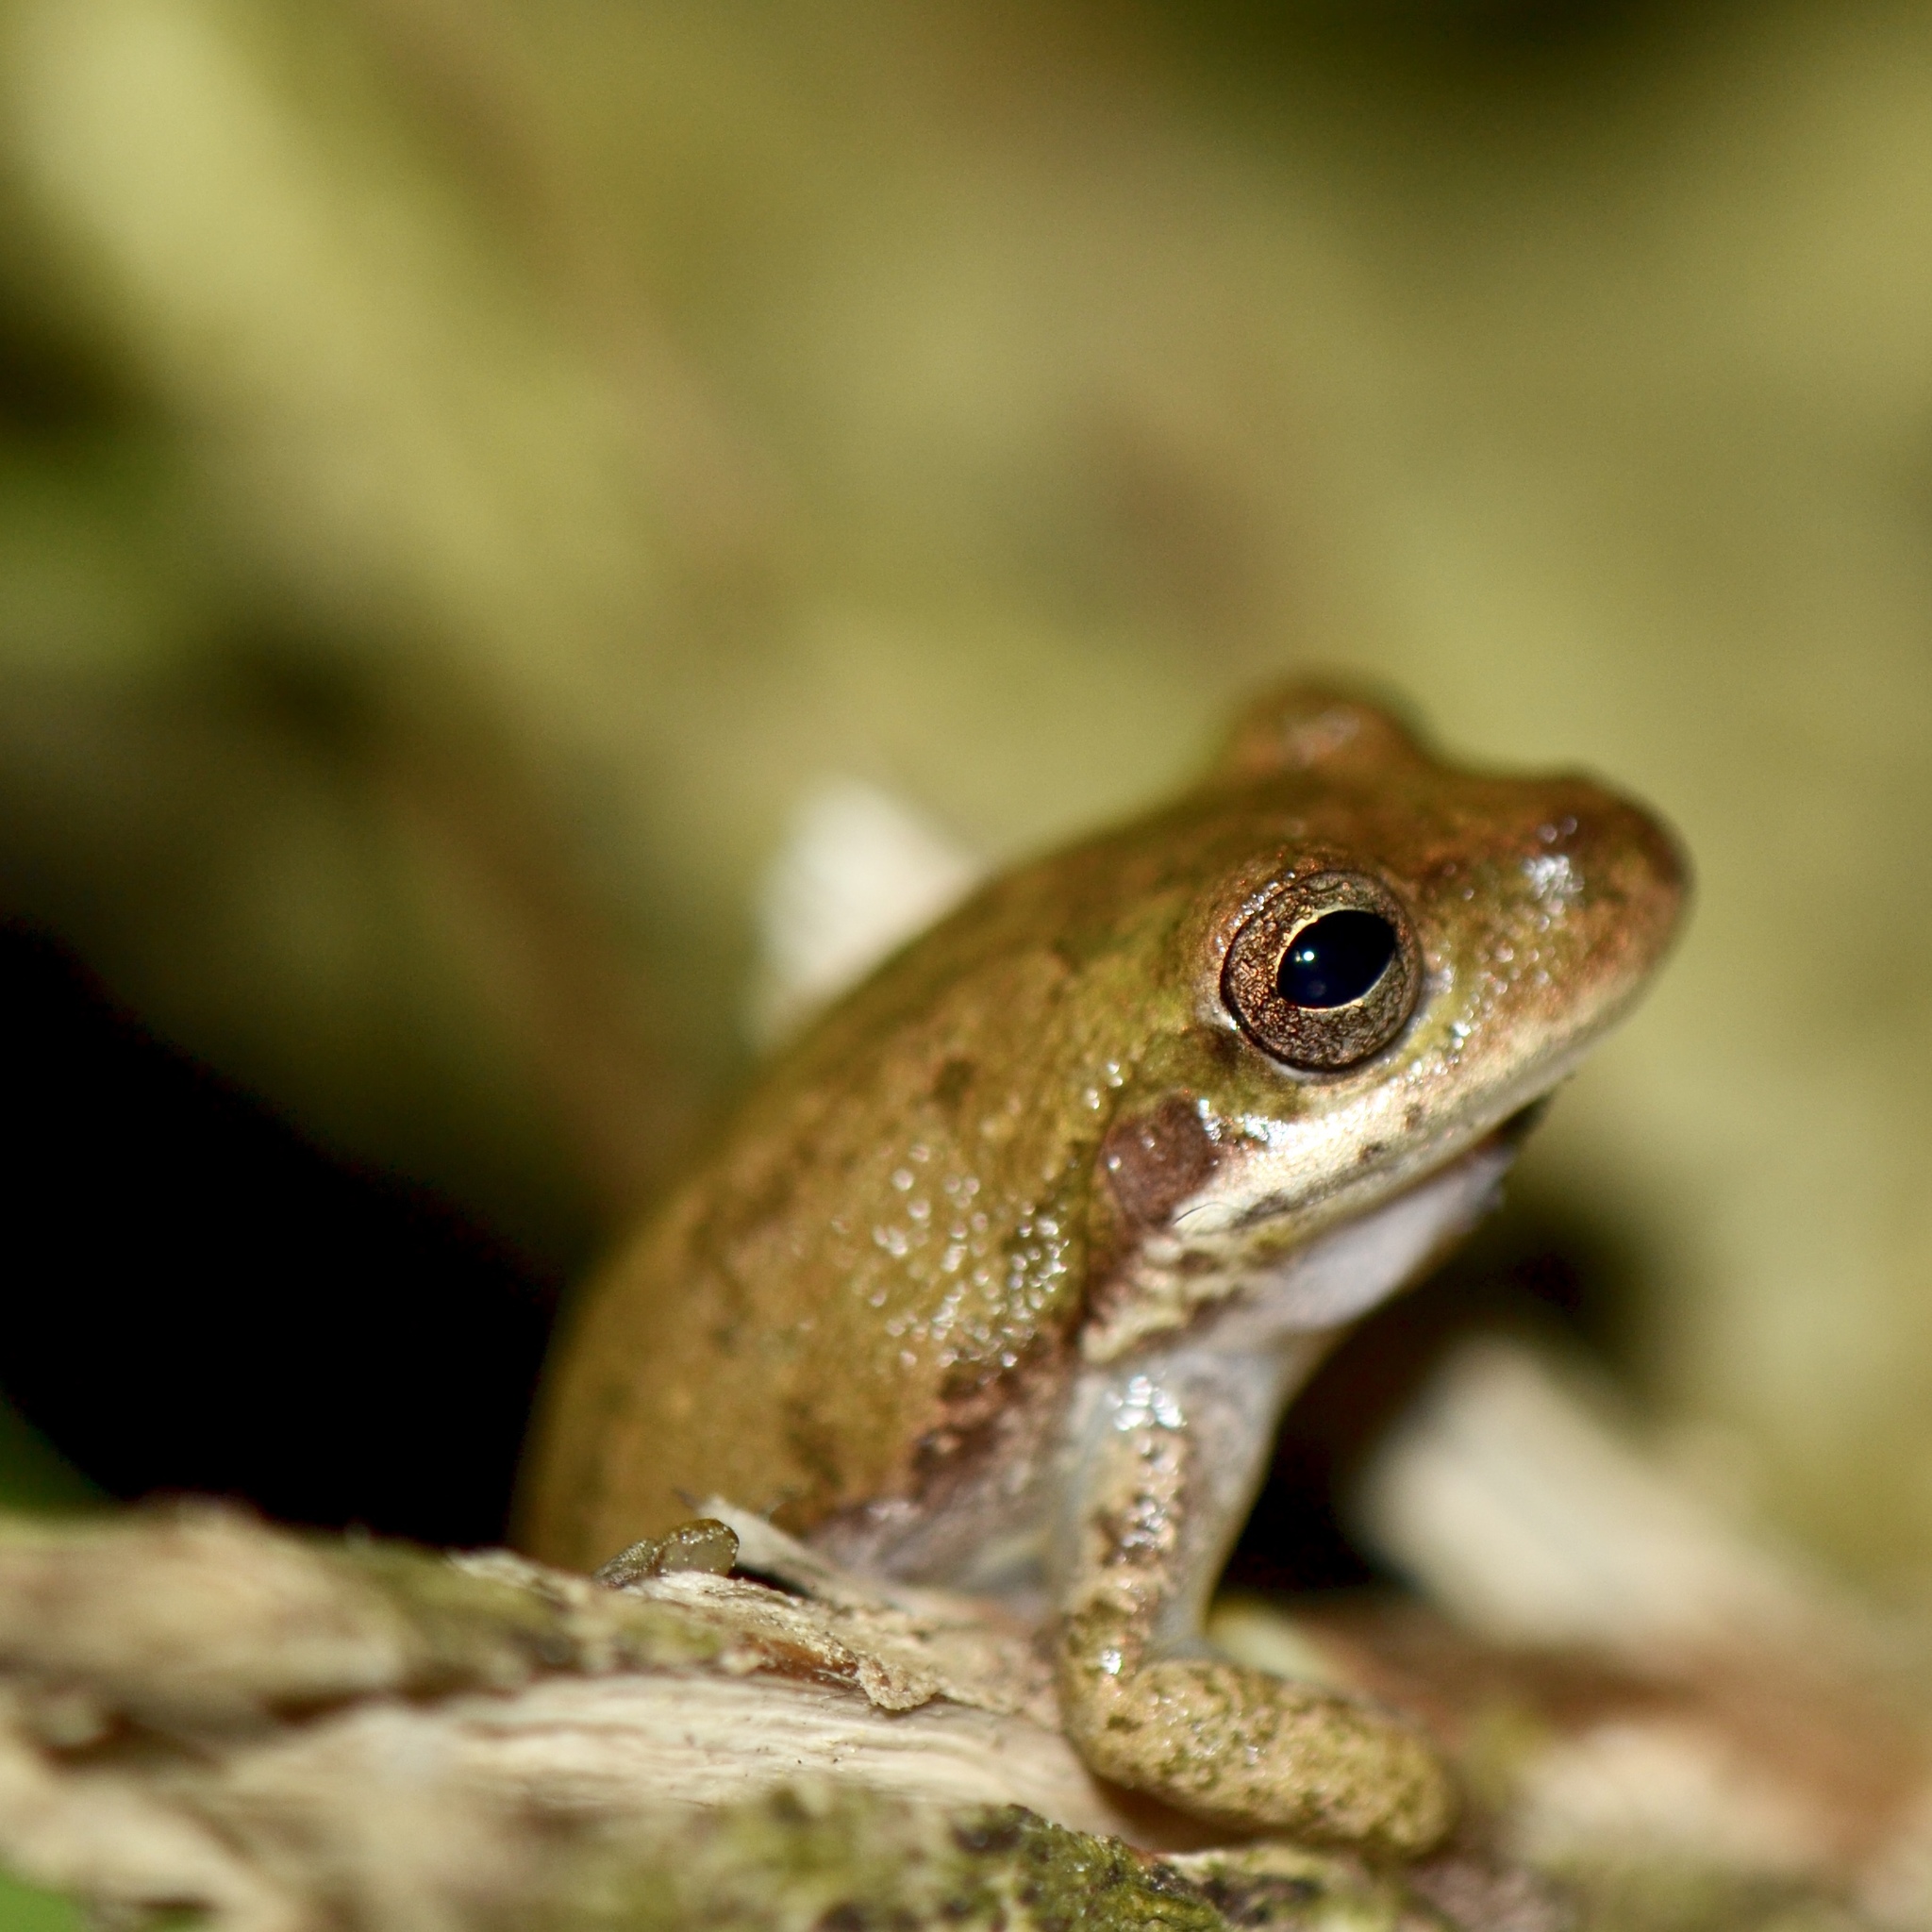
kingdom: Animalia
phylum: Chordata
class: Amphibia
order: Anura
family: Hylidae
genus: Dryophytes
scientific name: Dryophytes squirellus
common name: Squirrel treefrog
